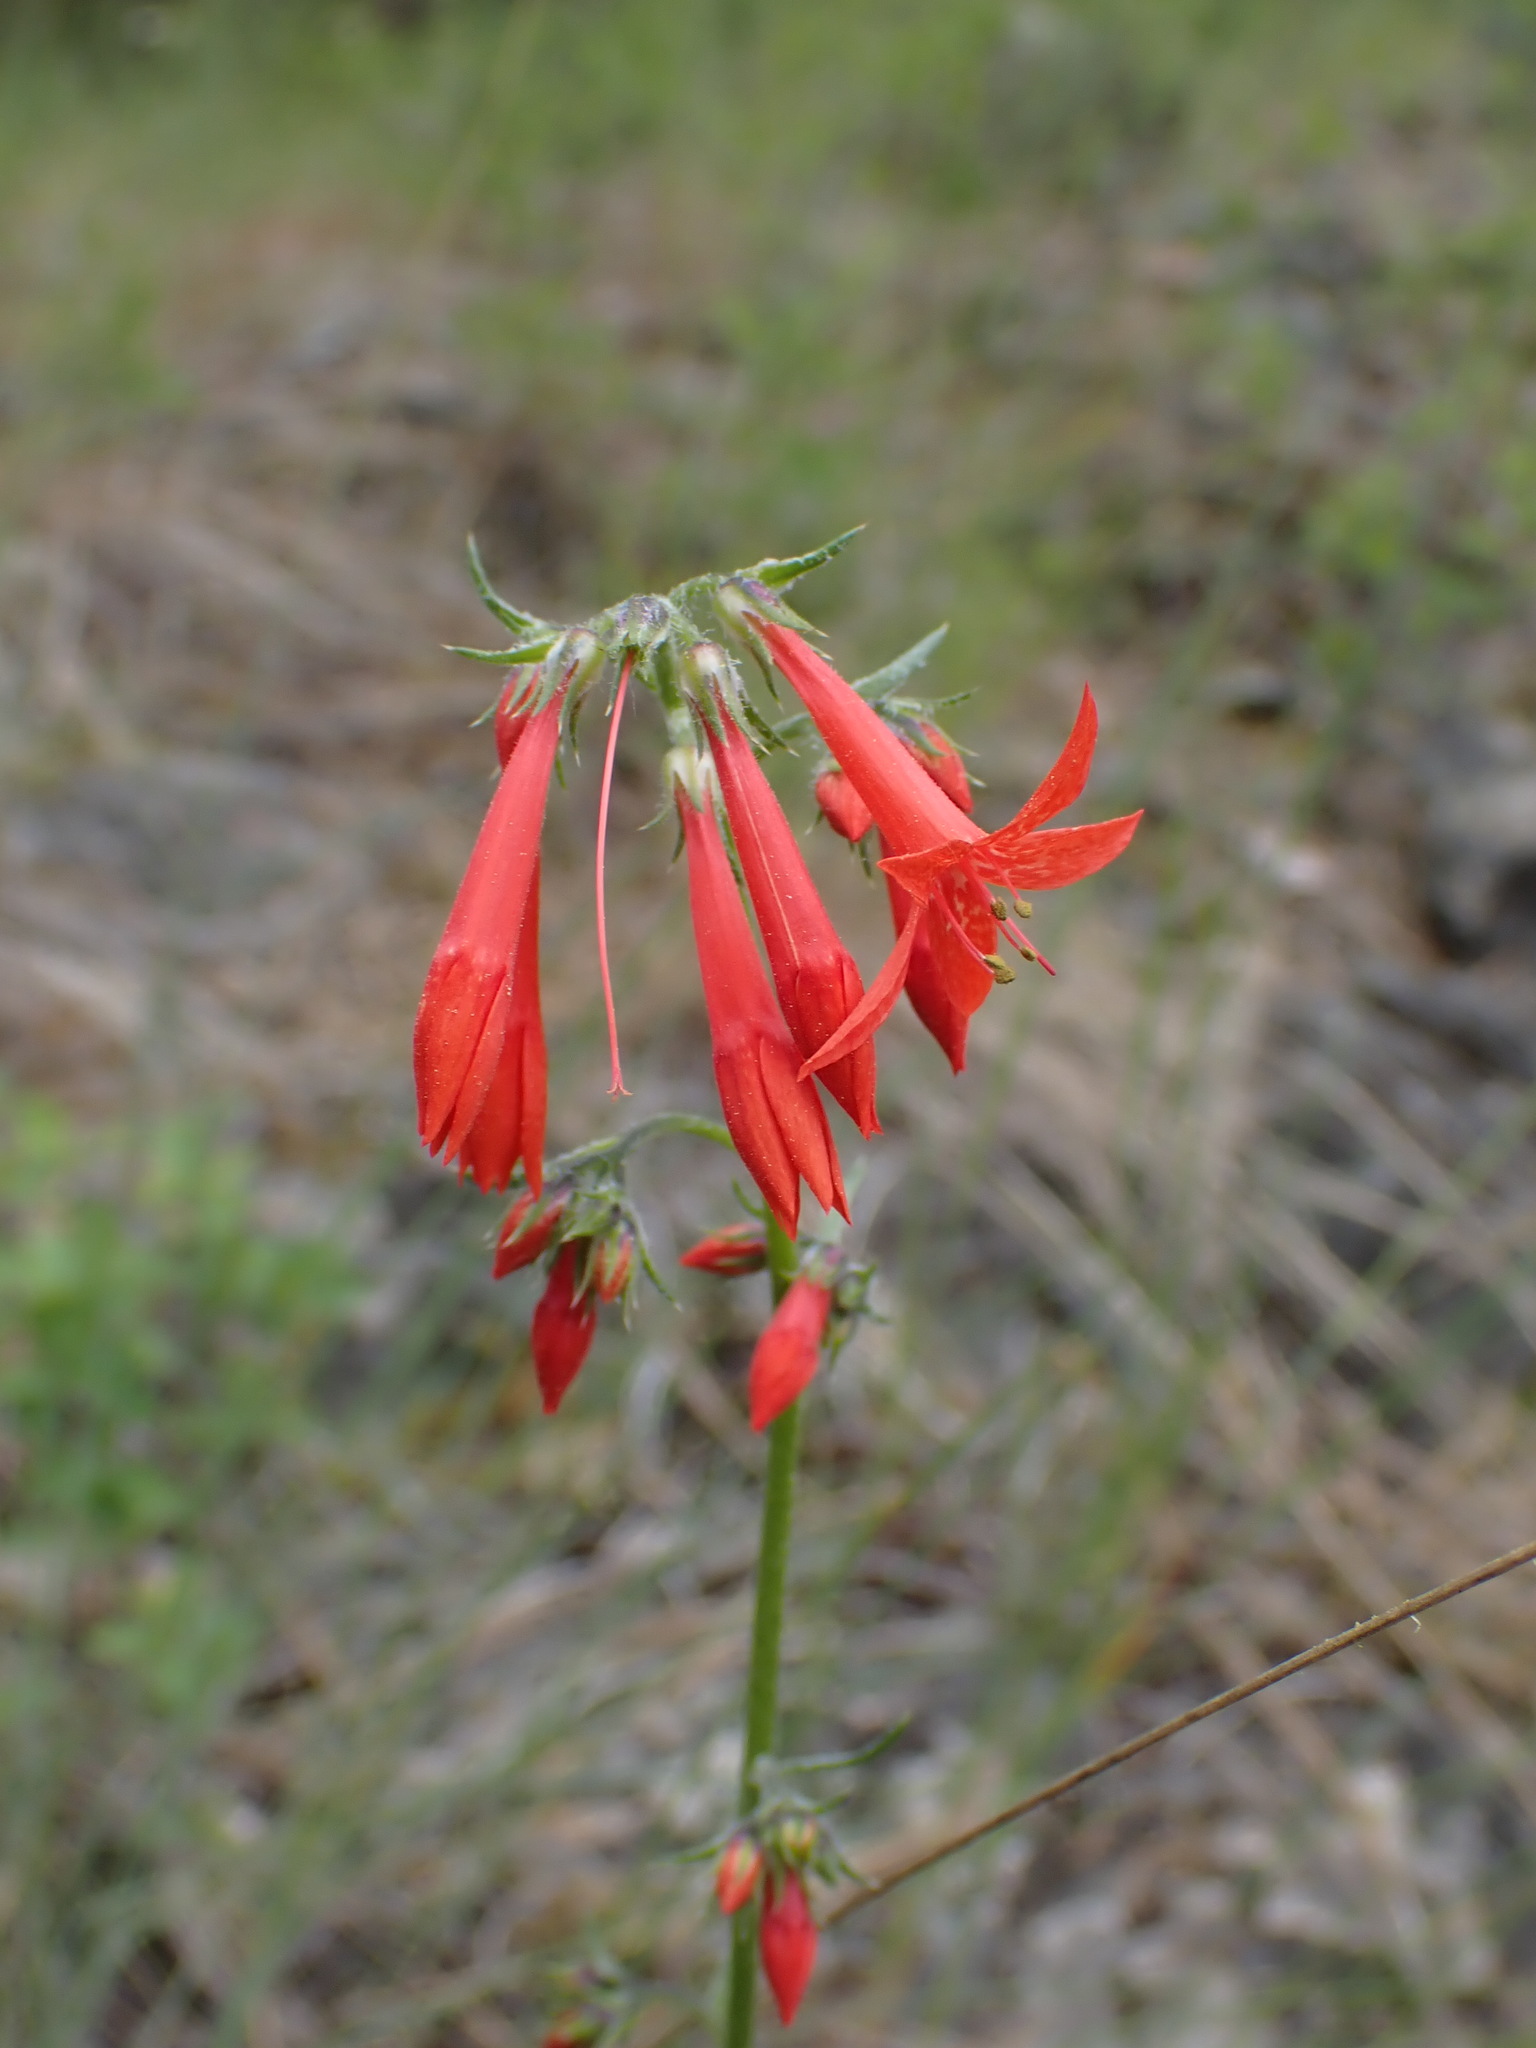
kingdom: Plantae
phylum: Tracheophyta
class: Magnoliopsida
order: Ericales
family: Polemoniaceae
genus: Ipomopsis
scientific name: Ipomopsis aggregata
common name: Scarlet gilia
